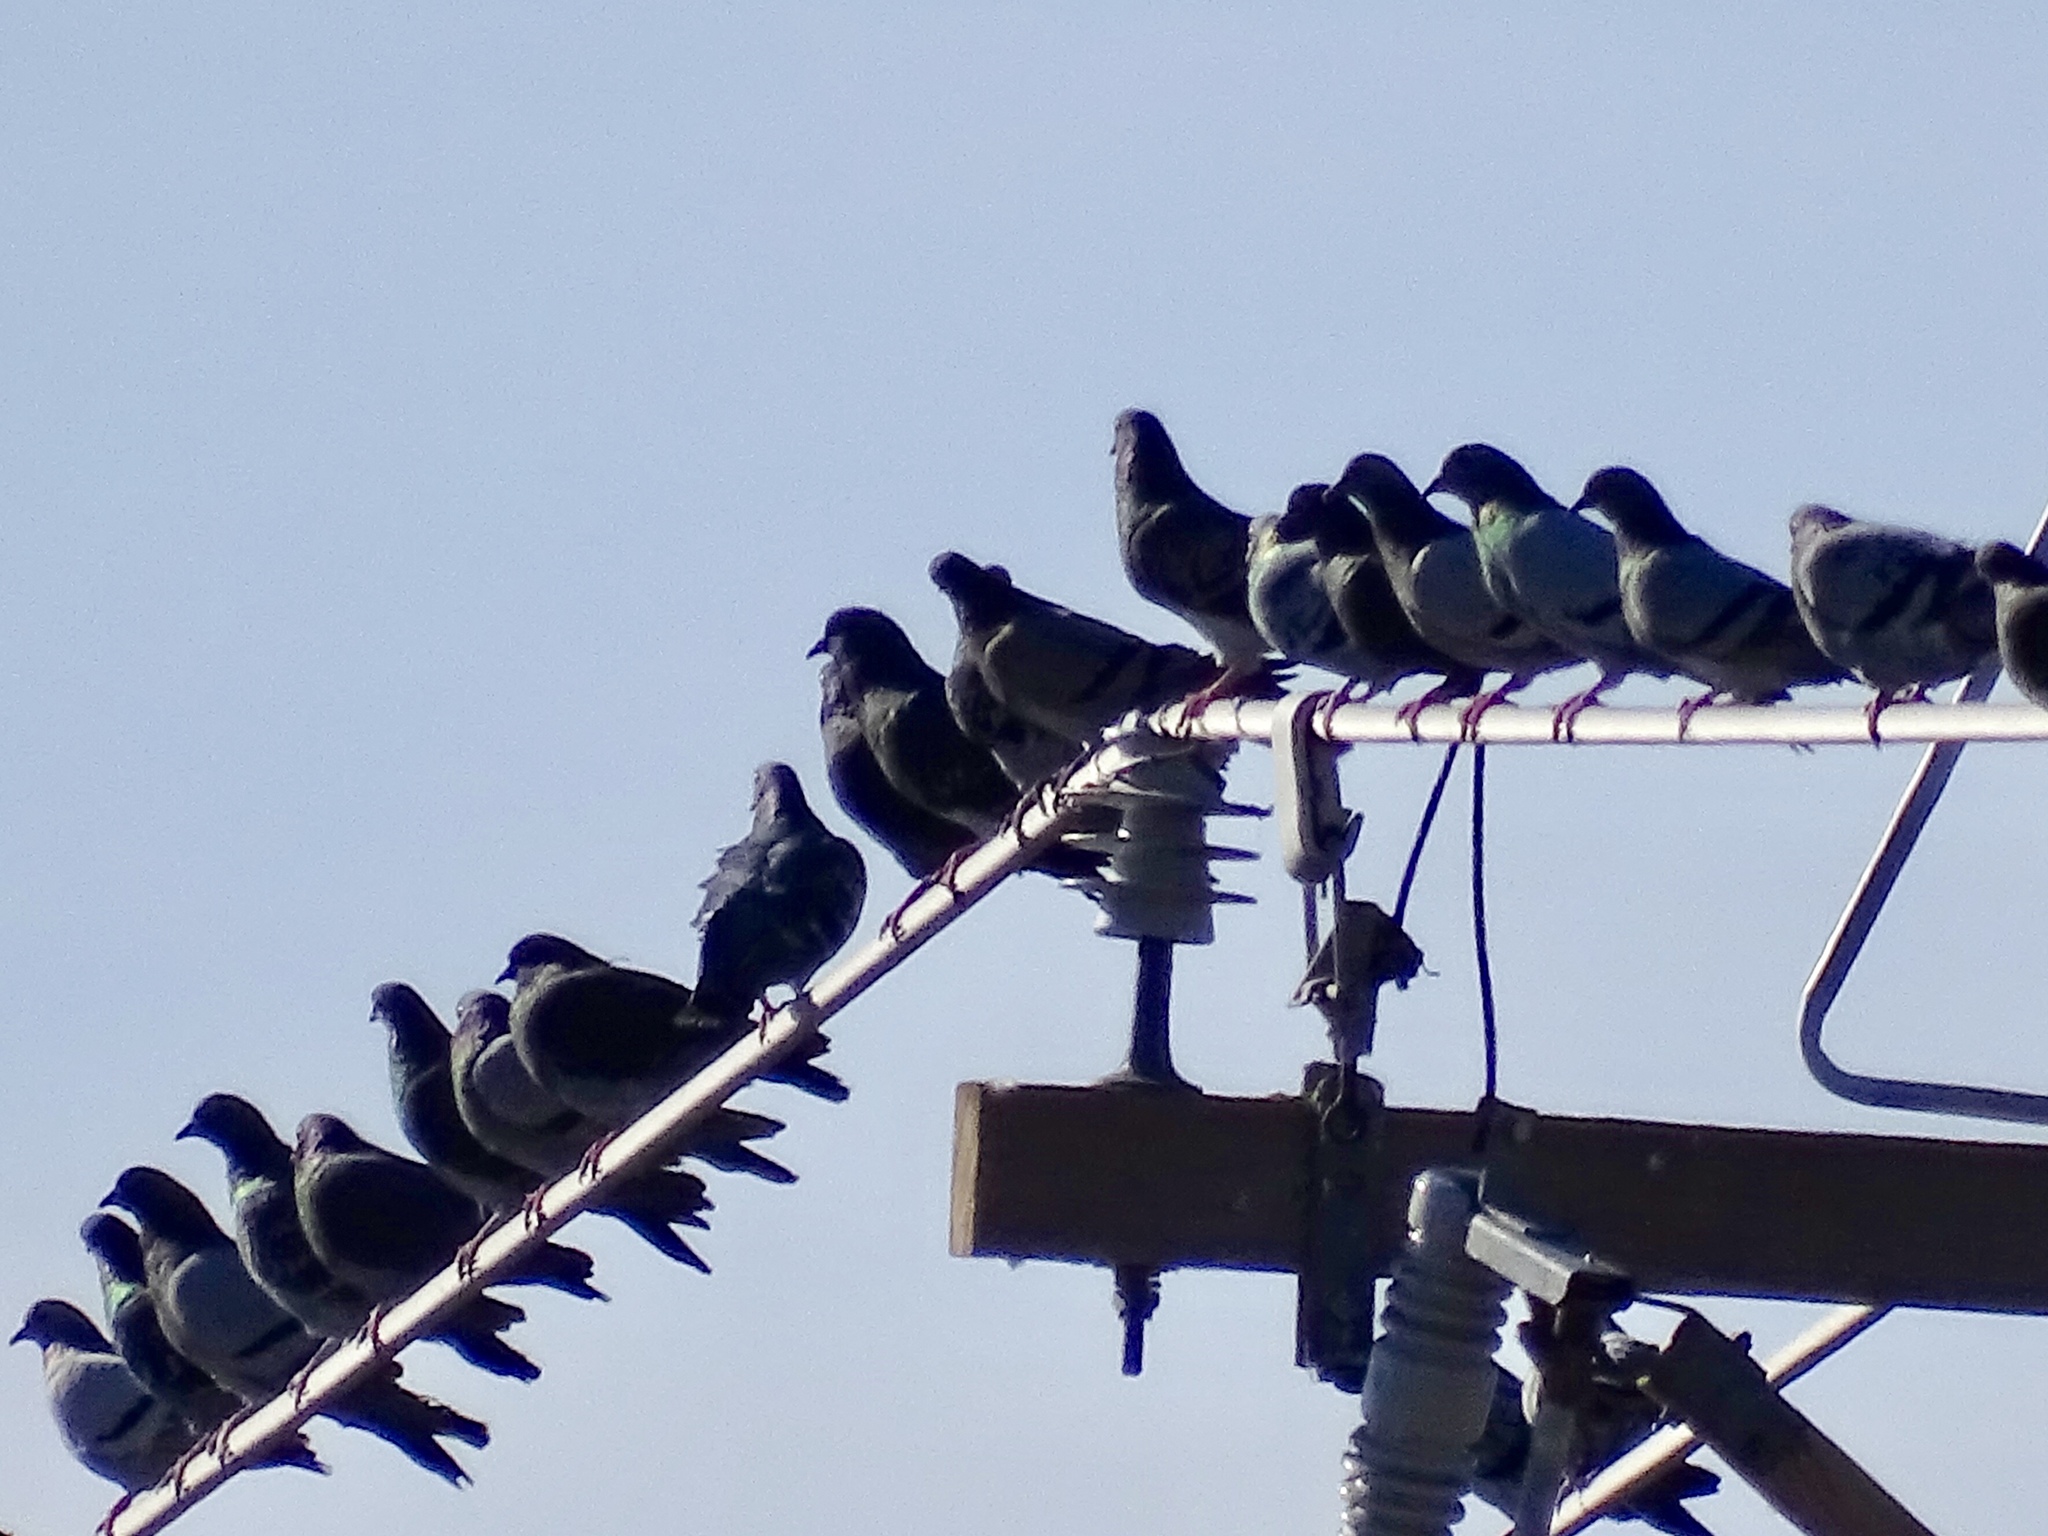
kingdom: Animalia
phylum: Chordata
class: Aves
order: Columbiformes
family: Columbidae
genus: Columba
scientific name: Columba livia
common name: Rock pigeon
